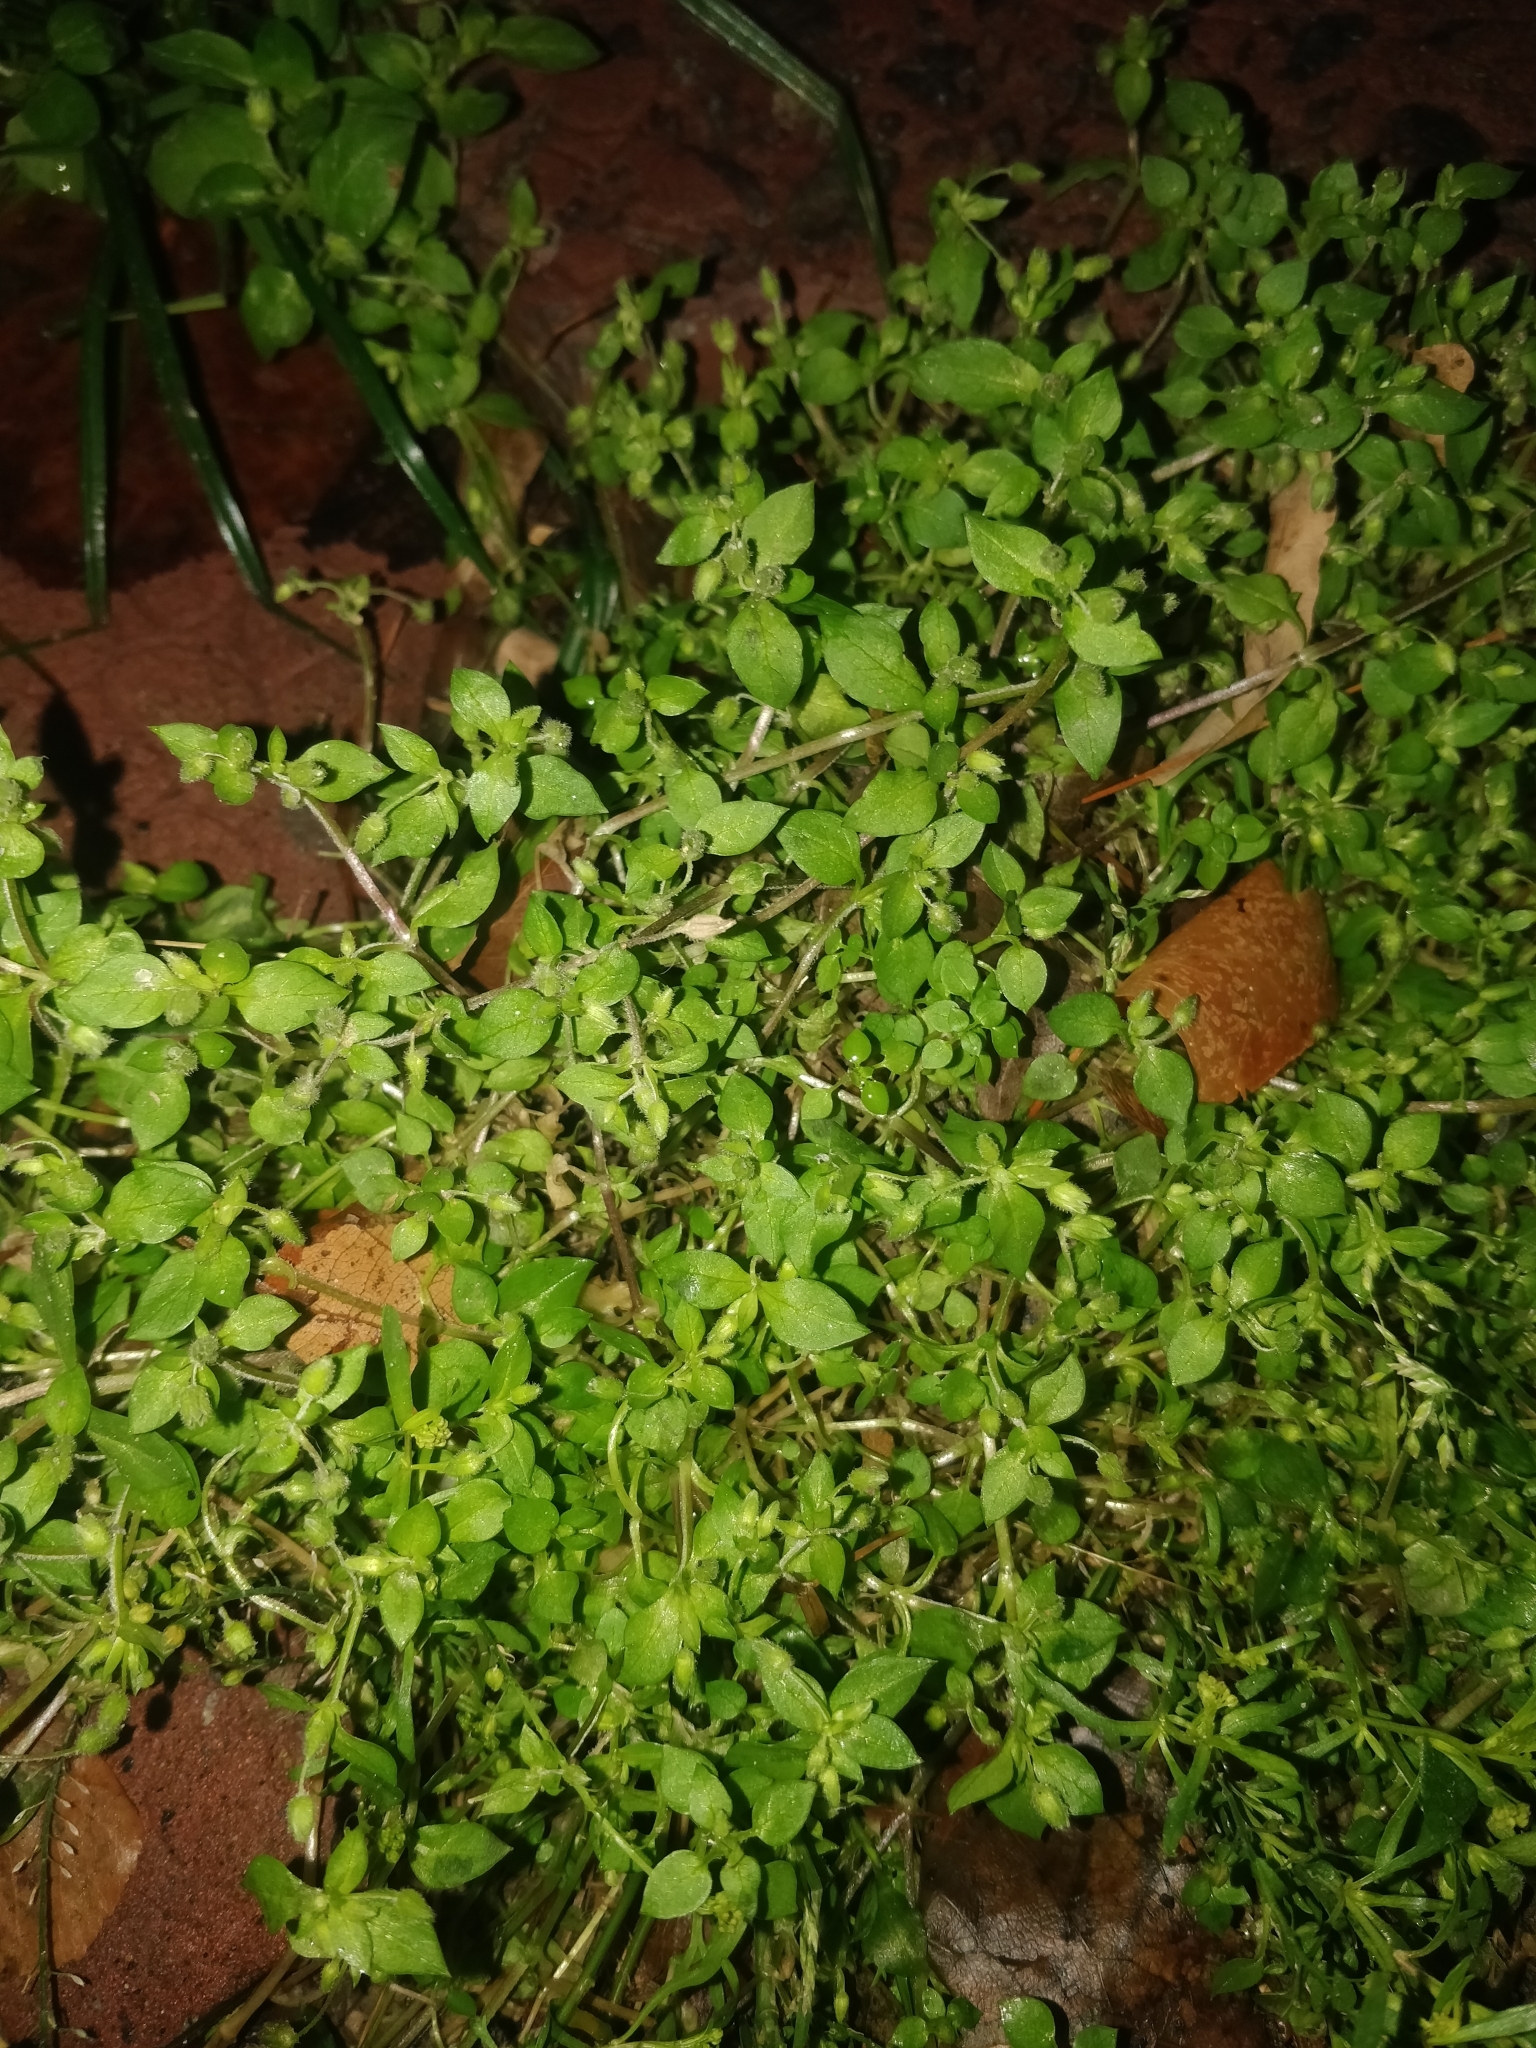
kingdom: Plantae
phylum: Tracheophyta
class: Magnoliopsida
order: Caryophyllales
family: Caryophyllaceae
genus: Stellaria
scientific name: Stellaria media
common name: Common chickweed
